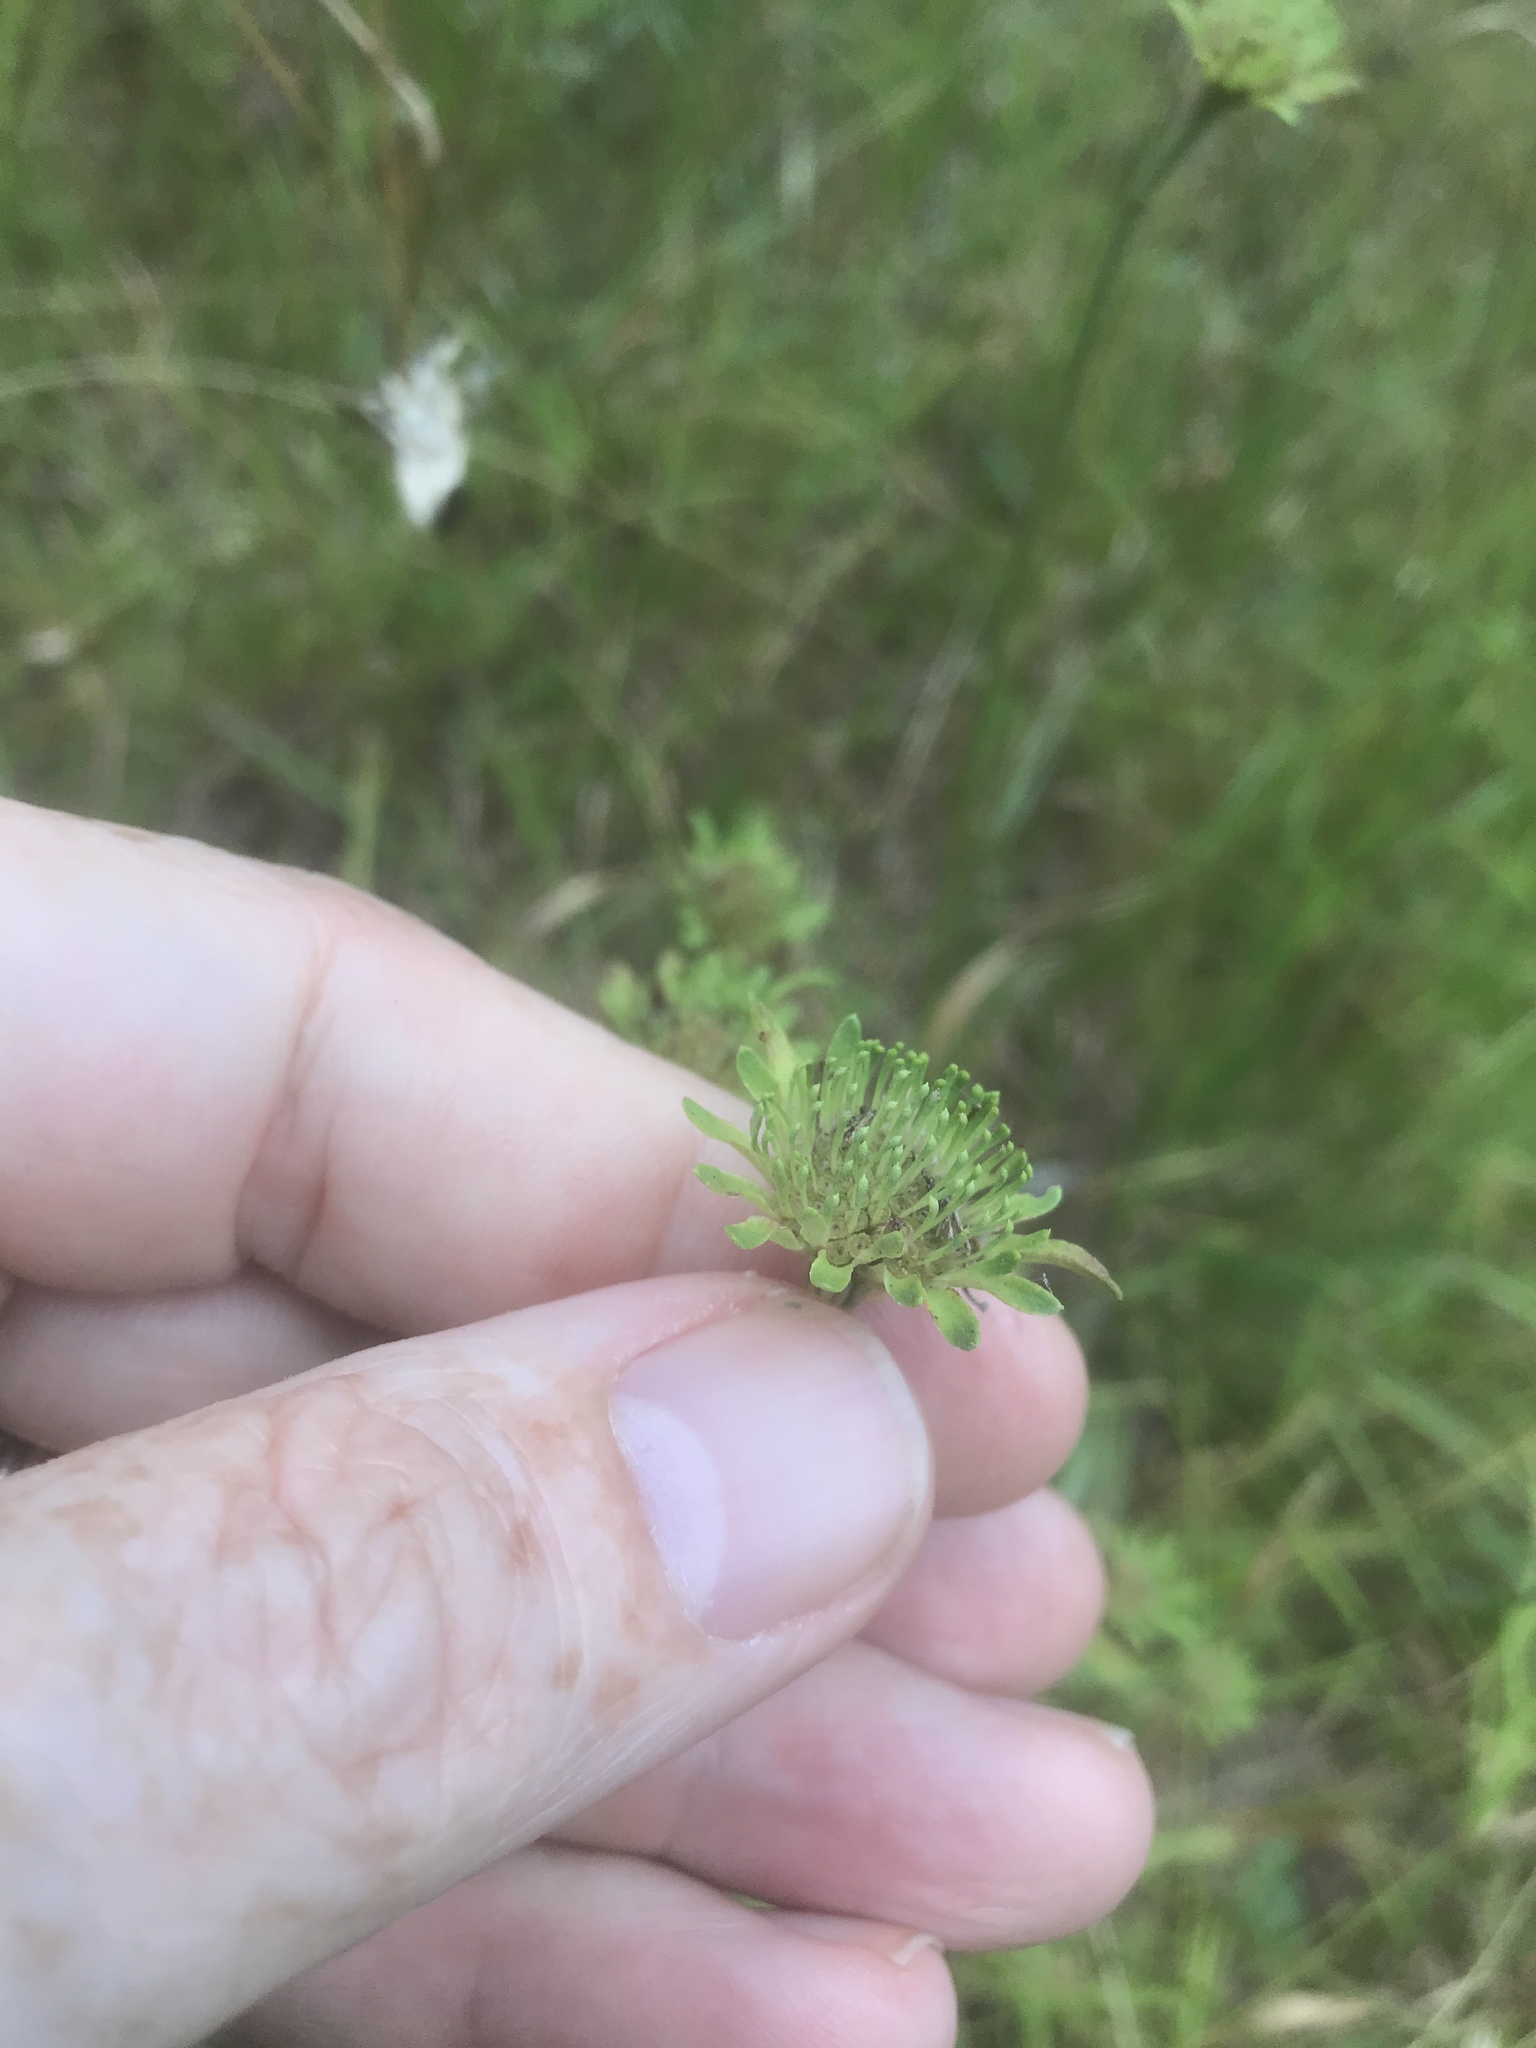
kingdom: Plantae
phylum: Tracheophyta
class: Magnoliopsida
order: Asterales
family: Asteraceae
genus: Marshallia
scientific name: Marshallia obovata
